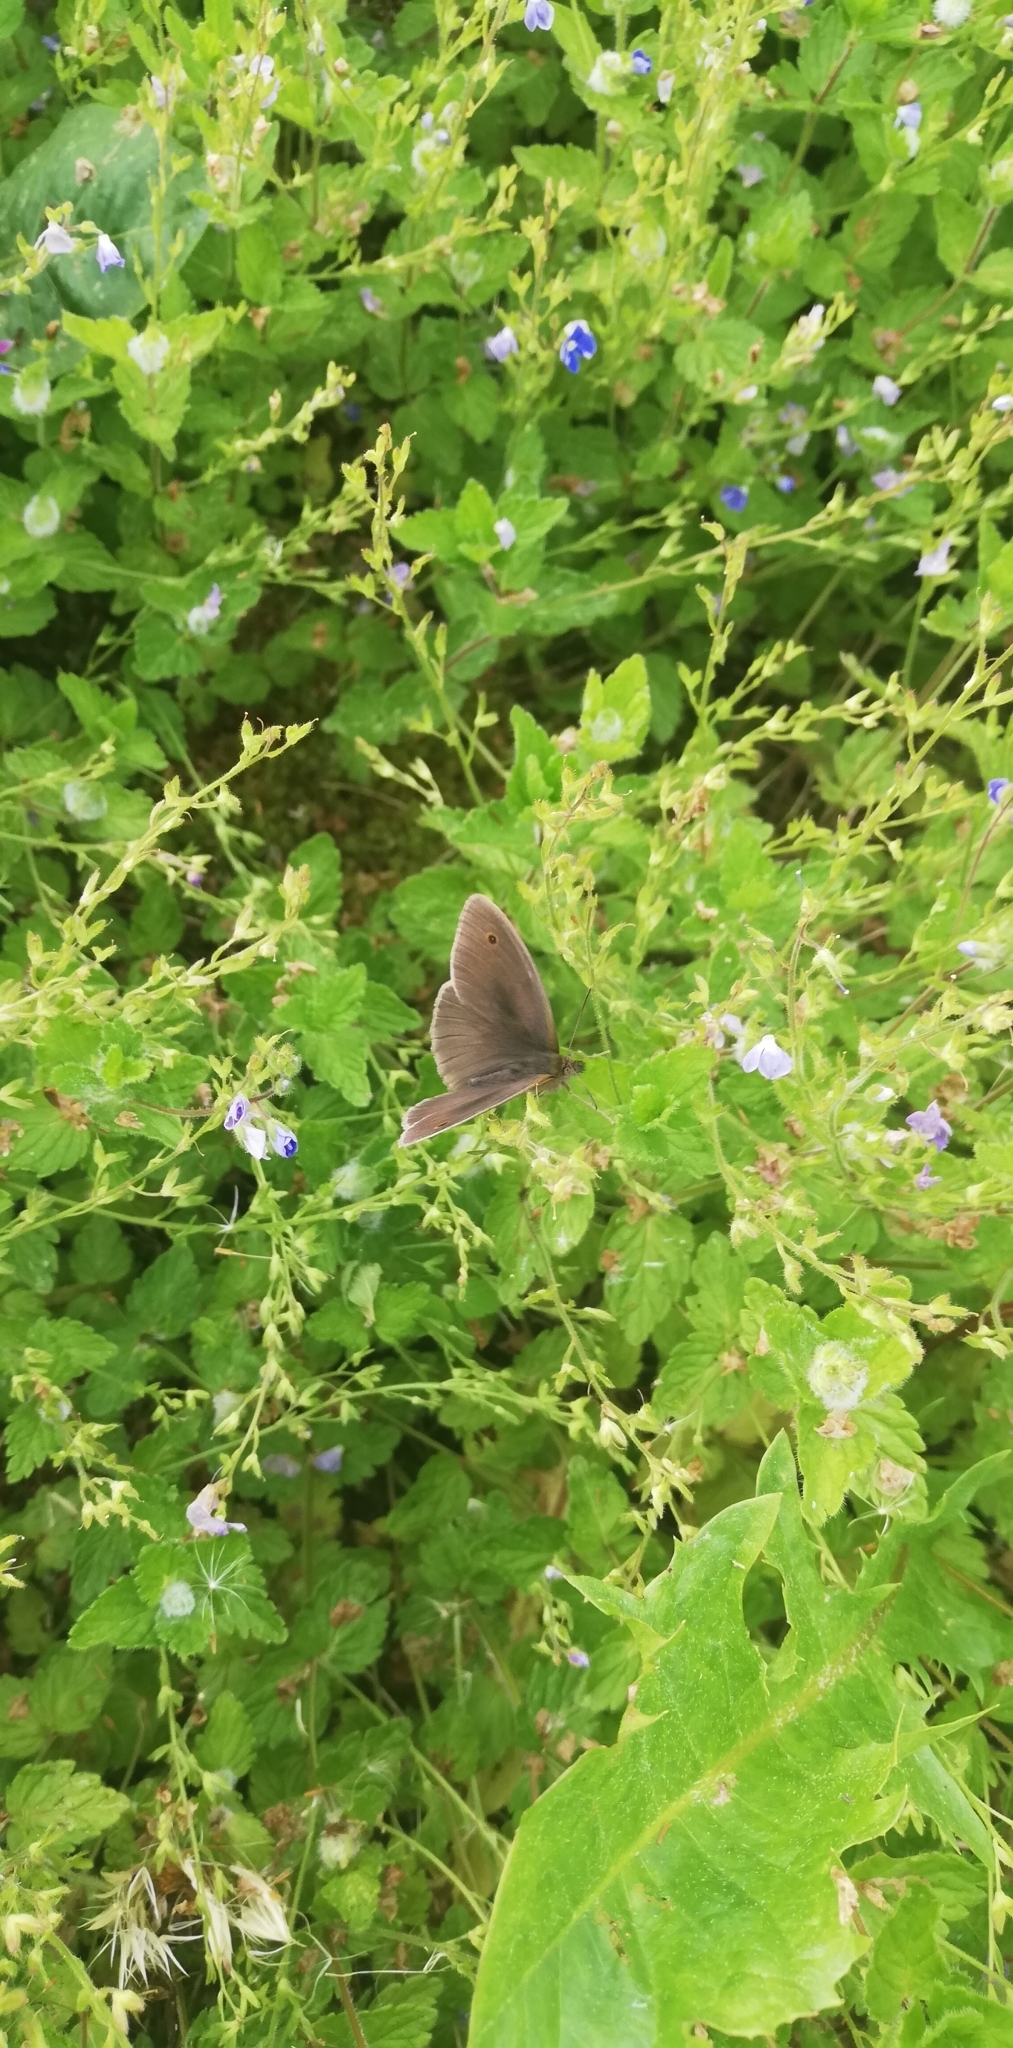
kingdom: Animalia
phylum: Arthropoda
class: Insecta
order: Lepidoptera
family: Nymphalidae
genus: Maniola
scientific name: Maniola jurtina
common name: Meadow brown
